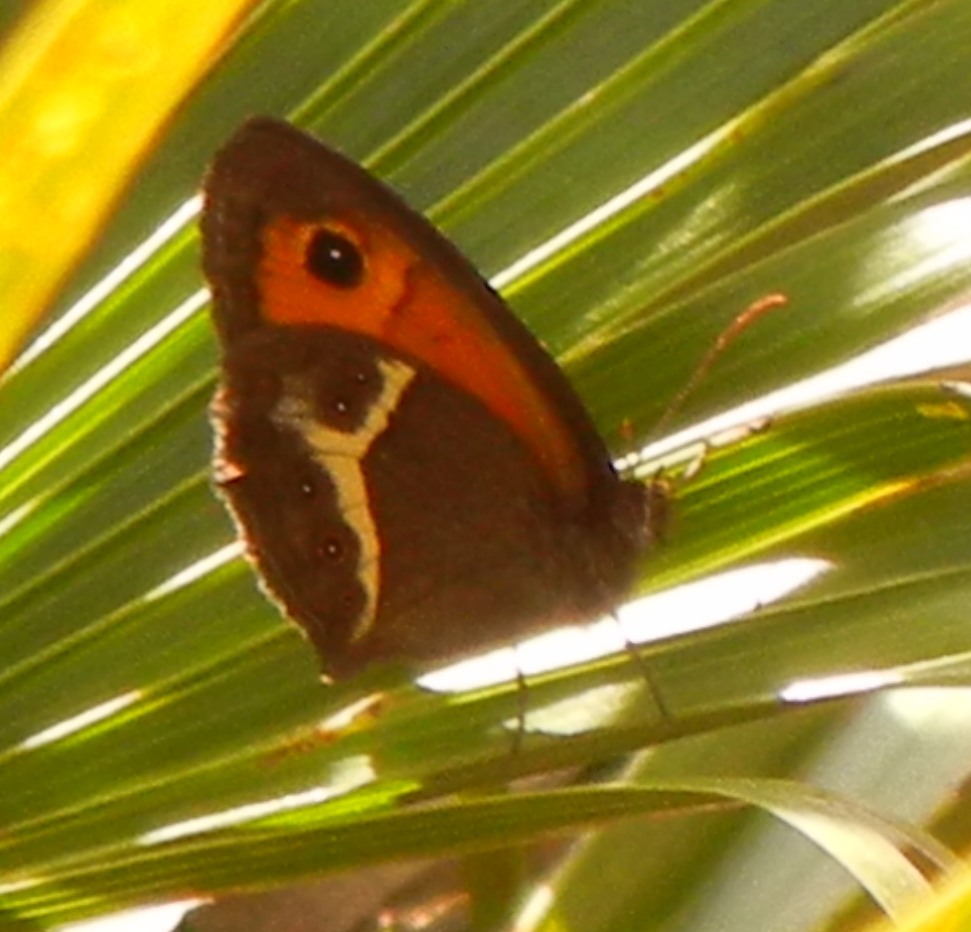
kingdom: Animalia
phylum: Arthropoda
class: Insecta
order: Lepidoptera
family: Nymphalidae
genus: Pyronia
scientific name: Pyronia bathseba
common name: Spanish gatekeeper
